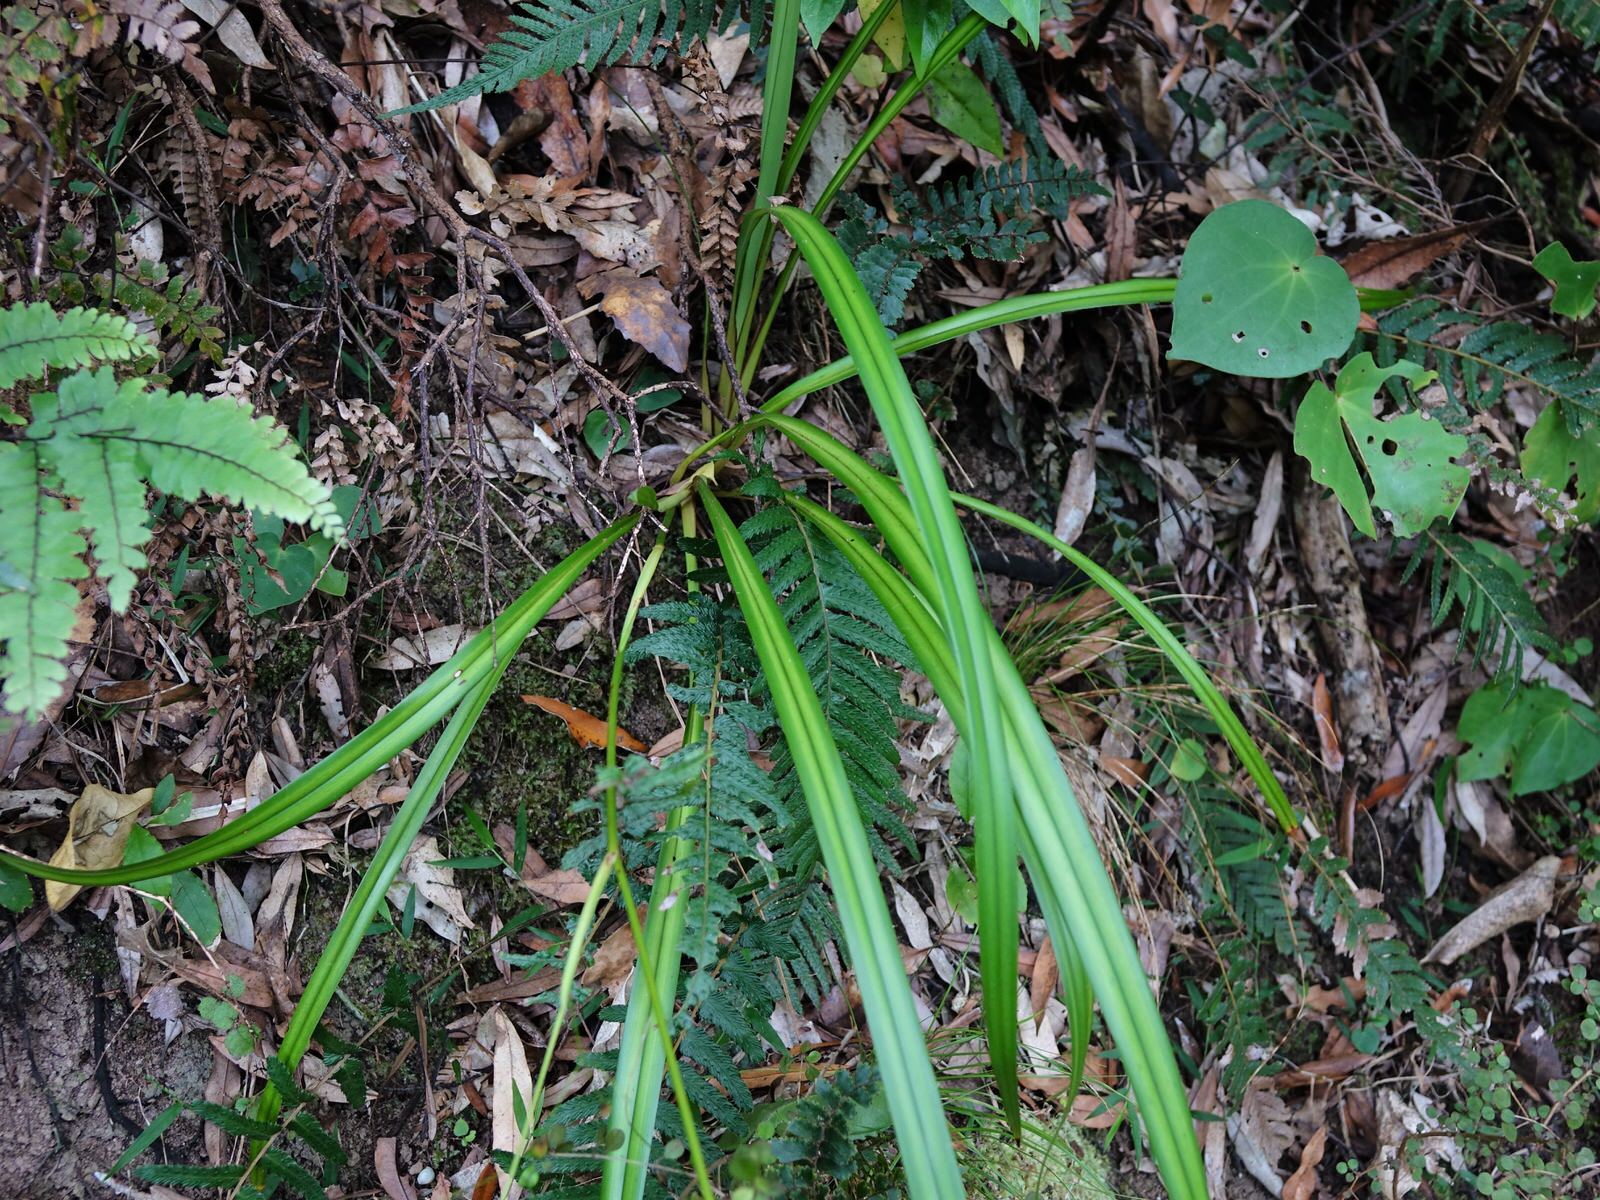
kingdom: Plantae
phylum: Tracheophyta
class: Liliopsida
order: Asparagales
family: Asphodelaceae
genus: Dianella
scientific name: Dianella nigra
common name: New zealand-blueberry
